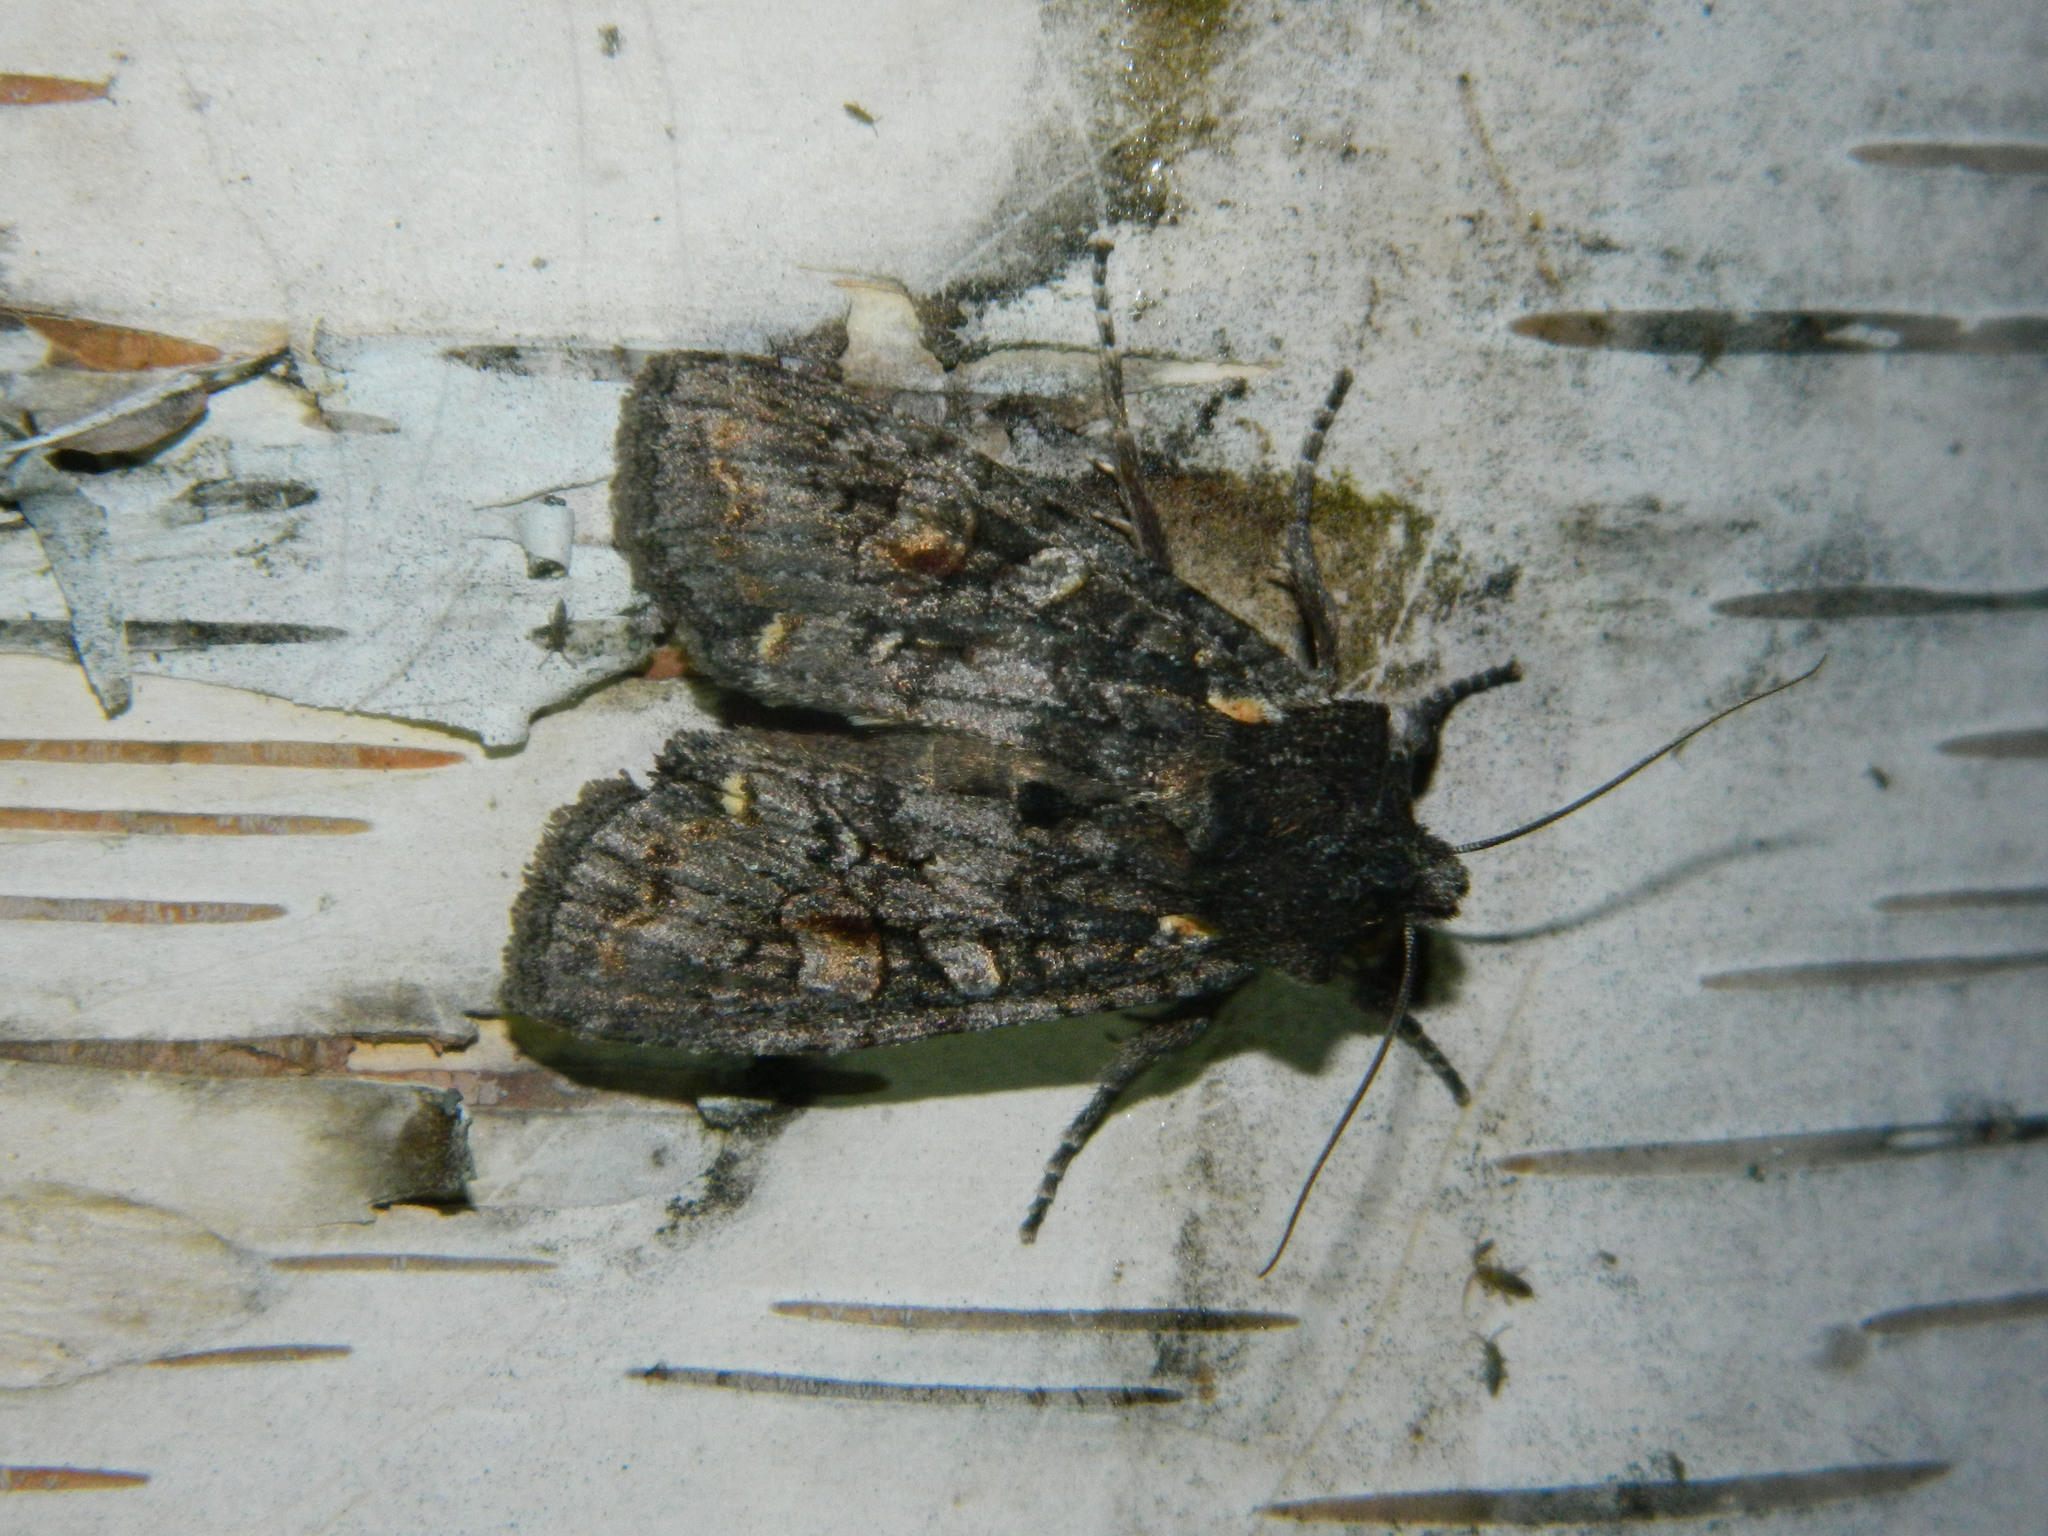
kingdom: Animalia
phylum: Arthropoda
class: Insecta
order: Lepidoptera
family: Noctuidae
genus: Lithophane
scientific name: Lithophane pexata
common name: Plush-naped pinion moth
